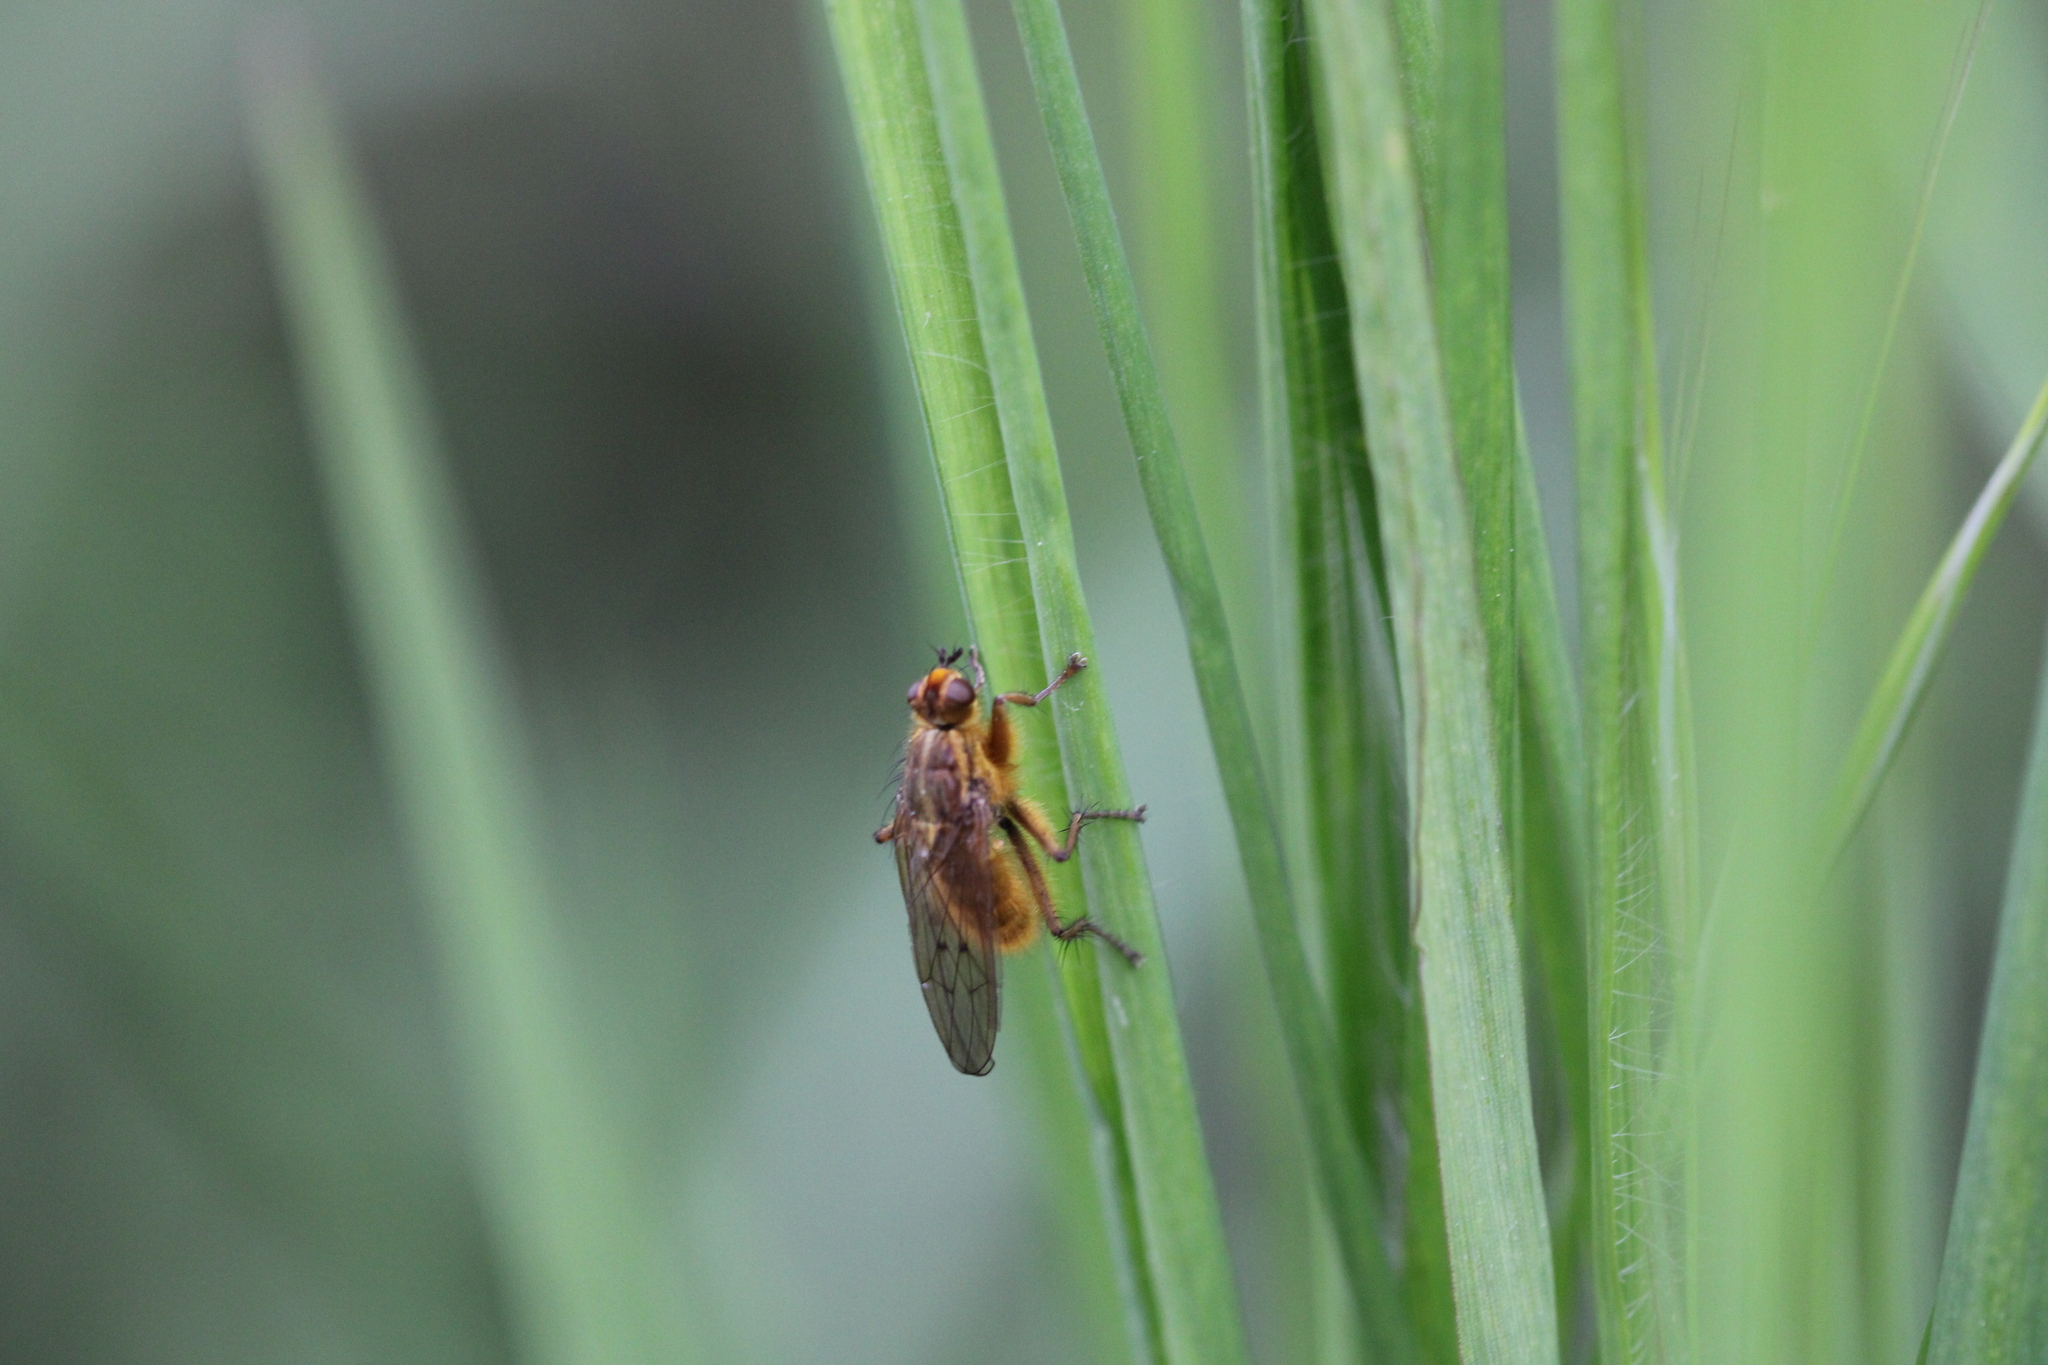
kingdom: Animalia
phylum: Arthropoda
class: Insecta
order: Diptera
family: Scathophagidae
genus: Scathophaga
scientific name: Scathophaga stercoraria
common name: Yellow dung fly
